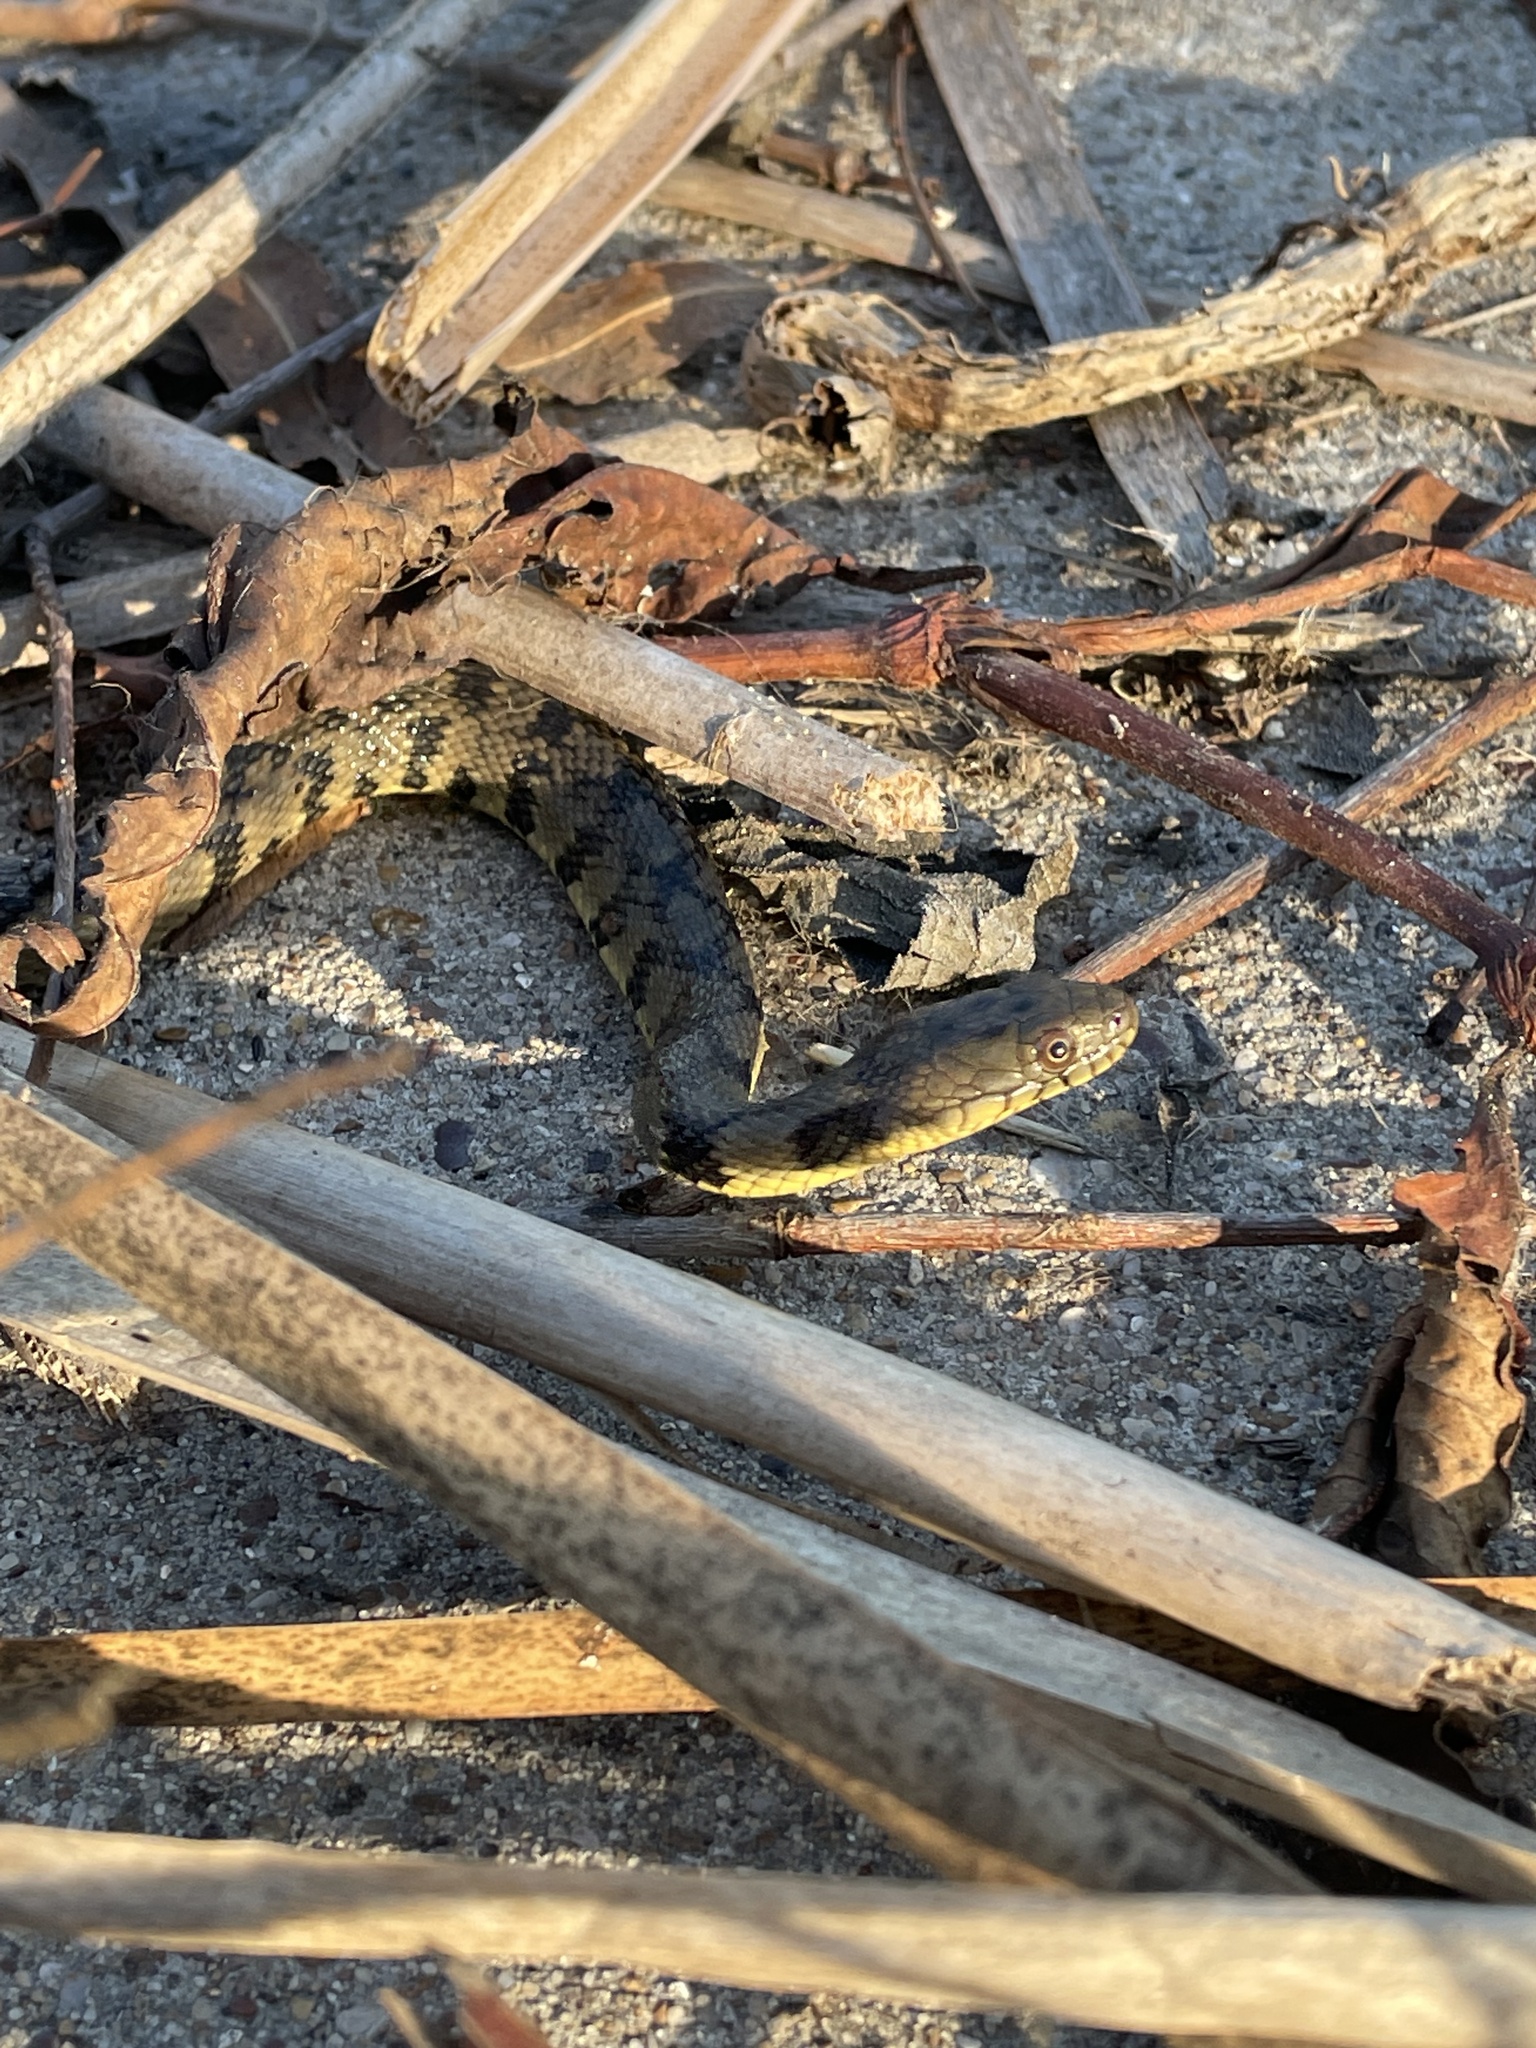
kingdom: Animalia
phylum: Chordata
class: Squamata
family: Colubridae
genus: Nerodia
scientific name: Nerodia rhombifer
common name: Diamondback water snake
